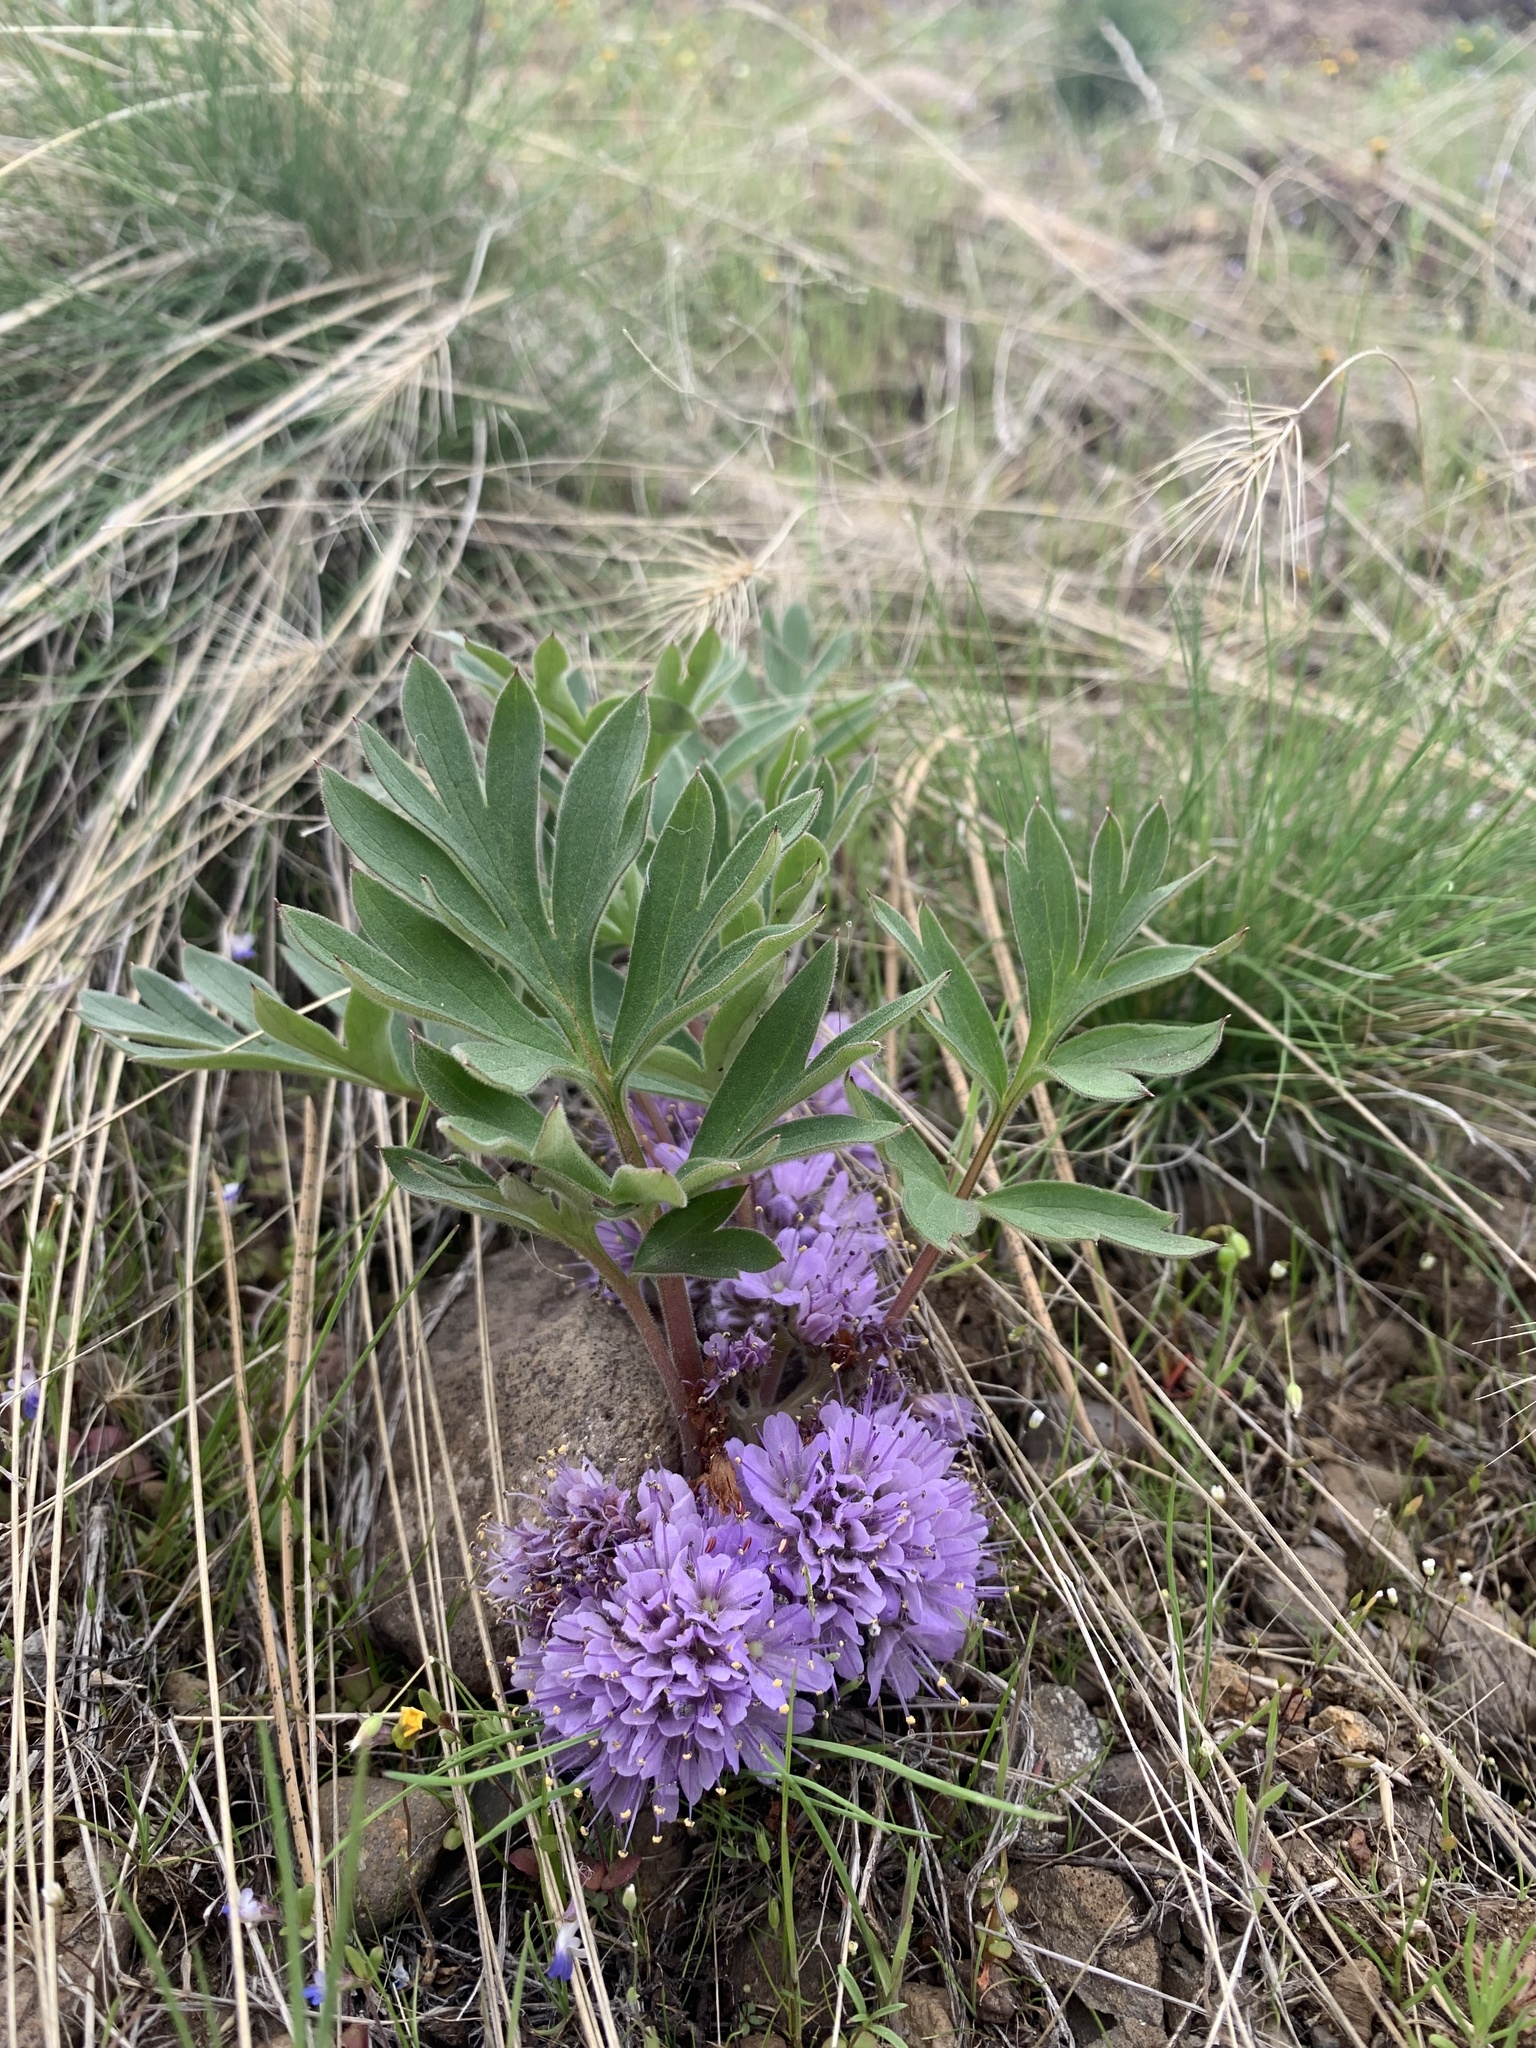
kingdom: Plantae
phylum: Tracheophyta
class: Magnoliopsida
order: Boraginales
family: Hydrophyllaceae
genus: Hydrophyllum
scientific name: Hydrophyllum alpestre
